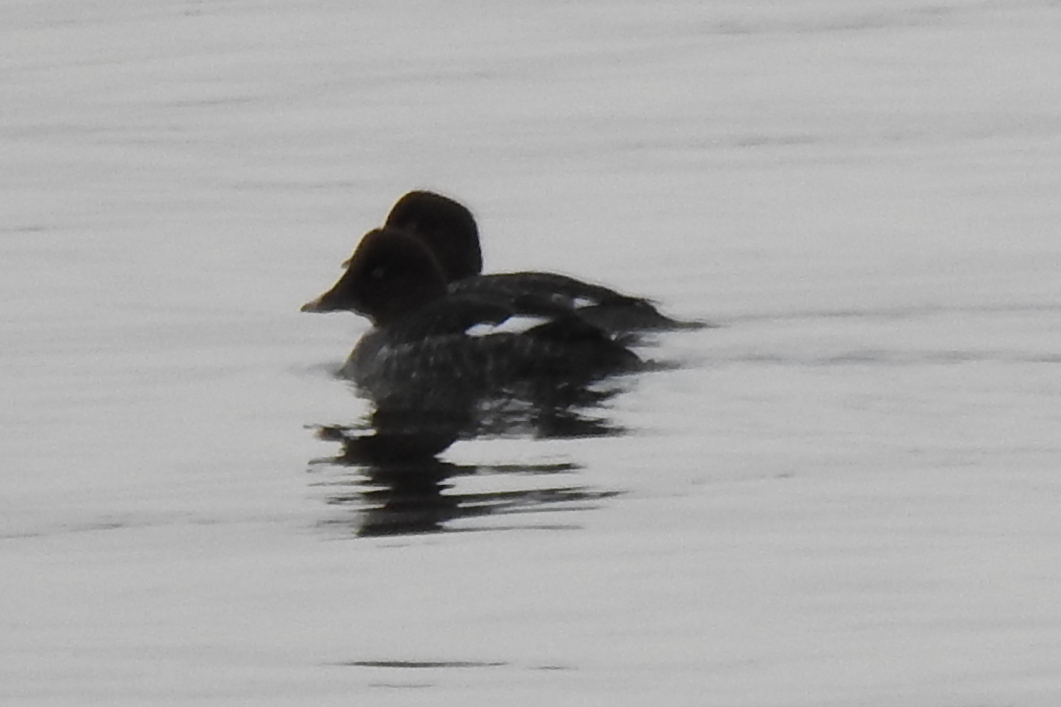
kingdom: Animalia
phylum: Chordata
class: Aves
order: Anseriformes
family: Anatidae
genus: Bucephala
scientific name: Bucephala clangula
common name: Common goldeneye
